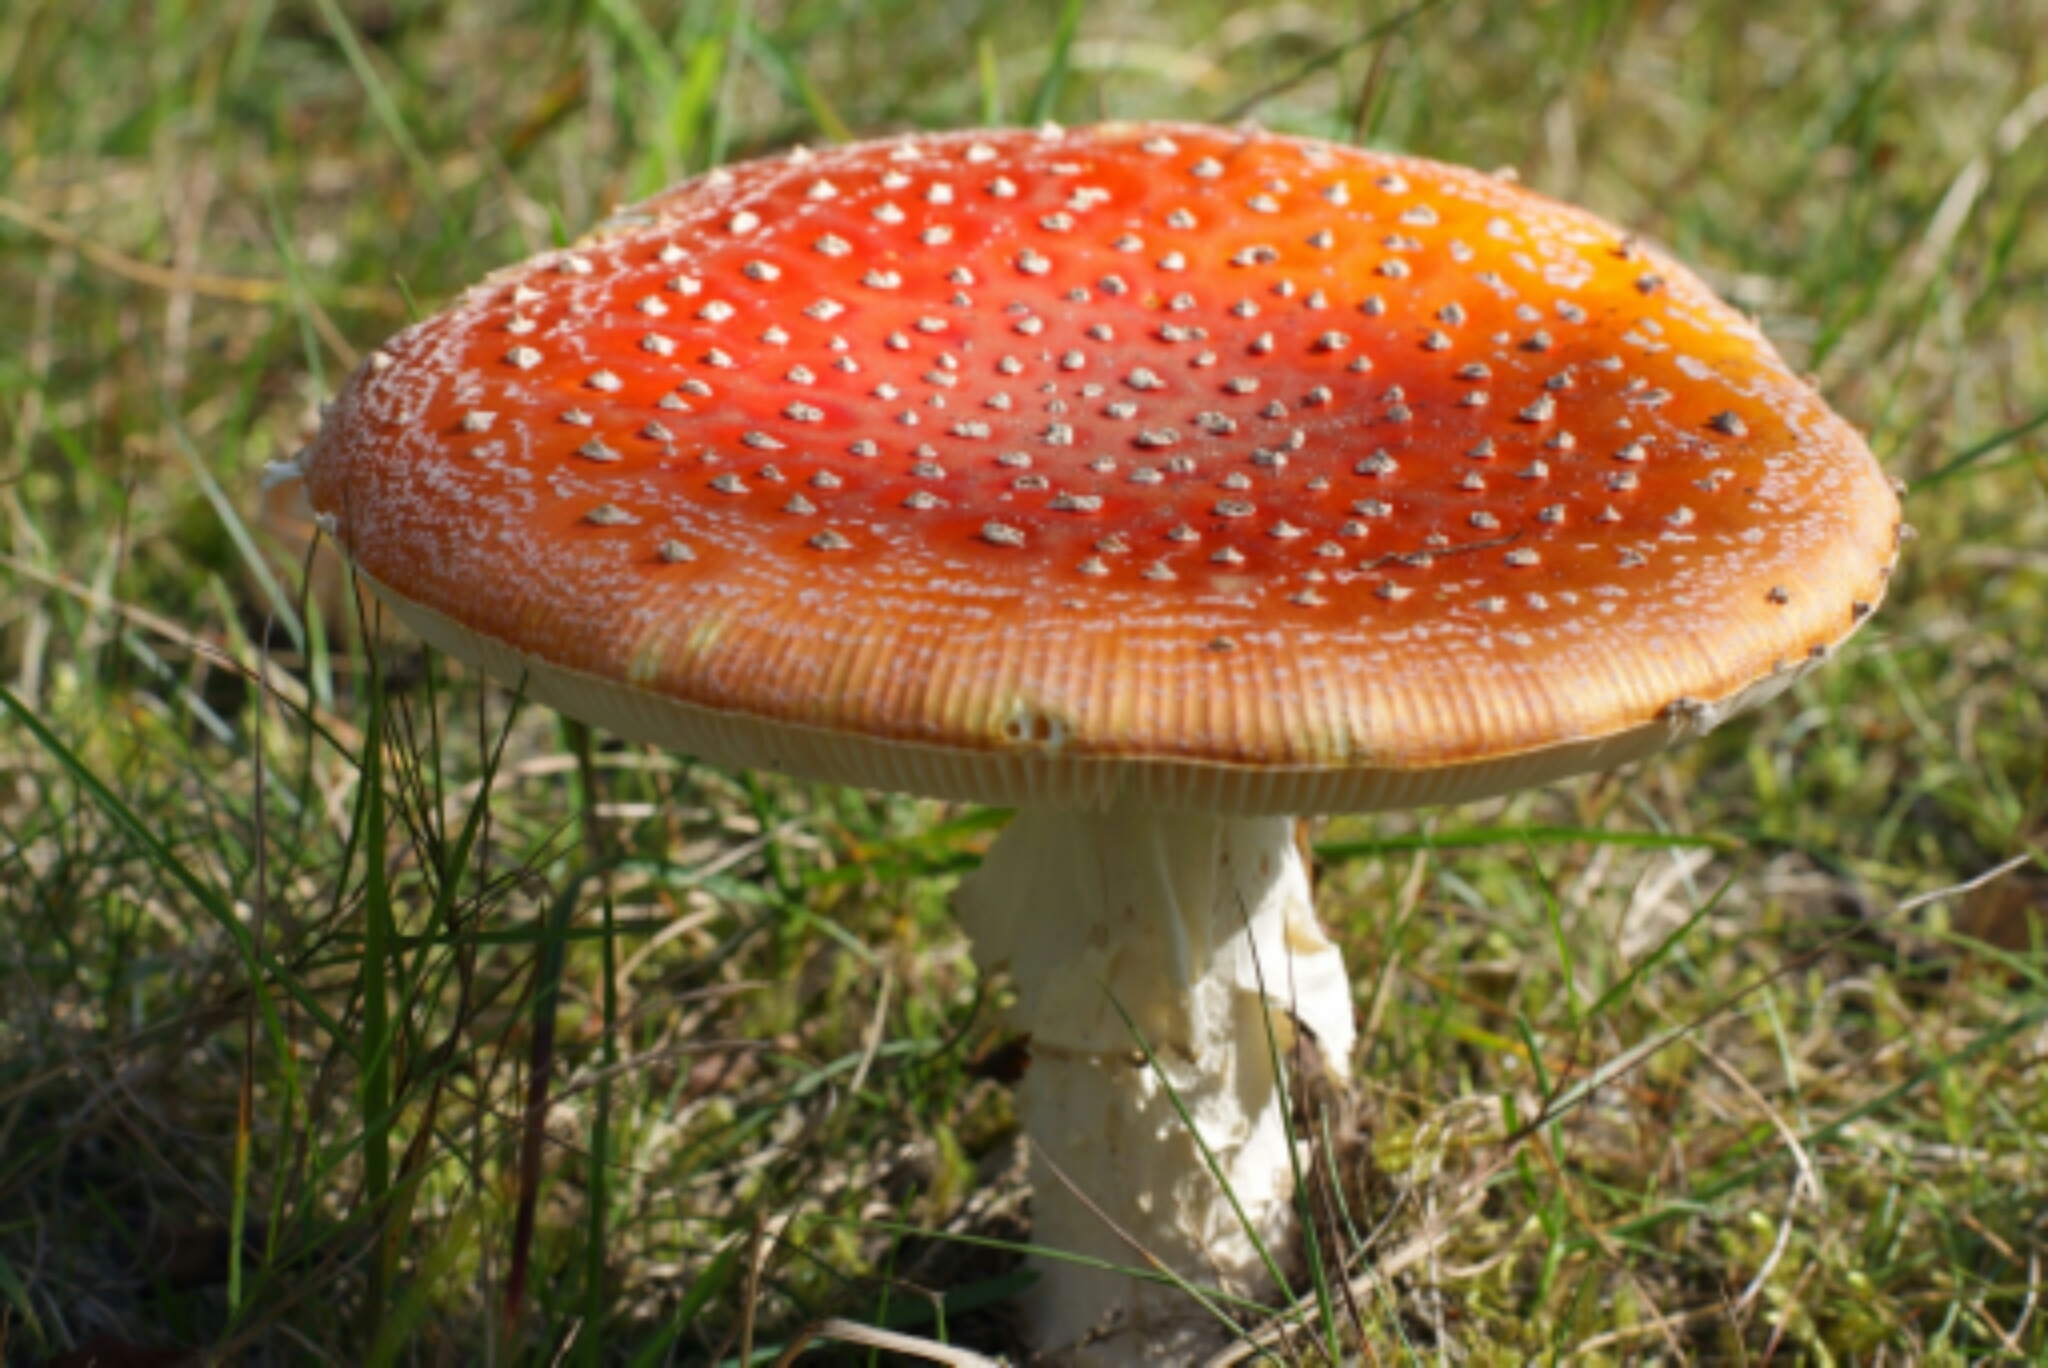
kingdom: Fungi
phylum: Basidiomycota
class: Agaricomycetes
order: Agaricales
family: Amanitaceae
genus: Amanita
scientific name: Amanita muscaria
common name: Fly agaric
